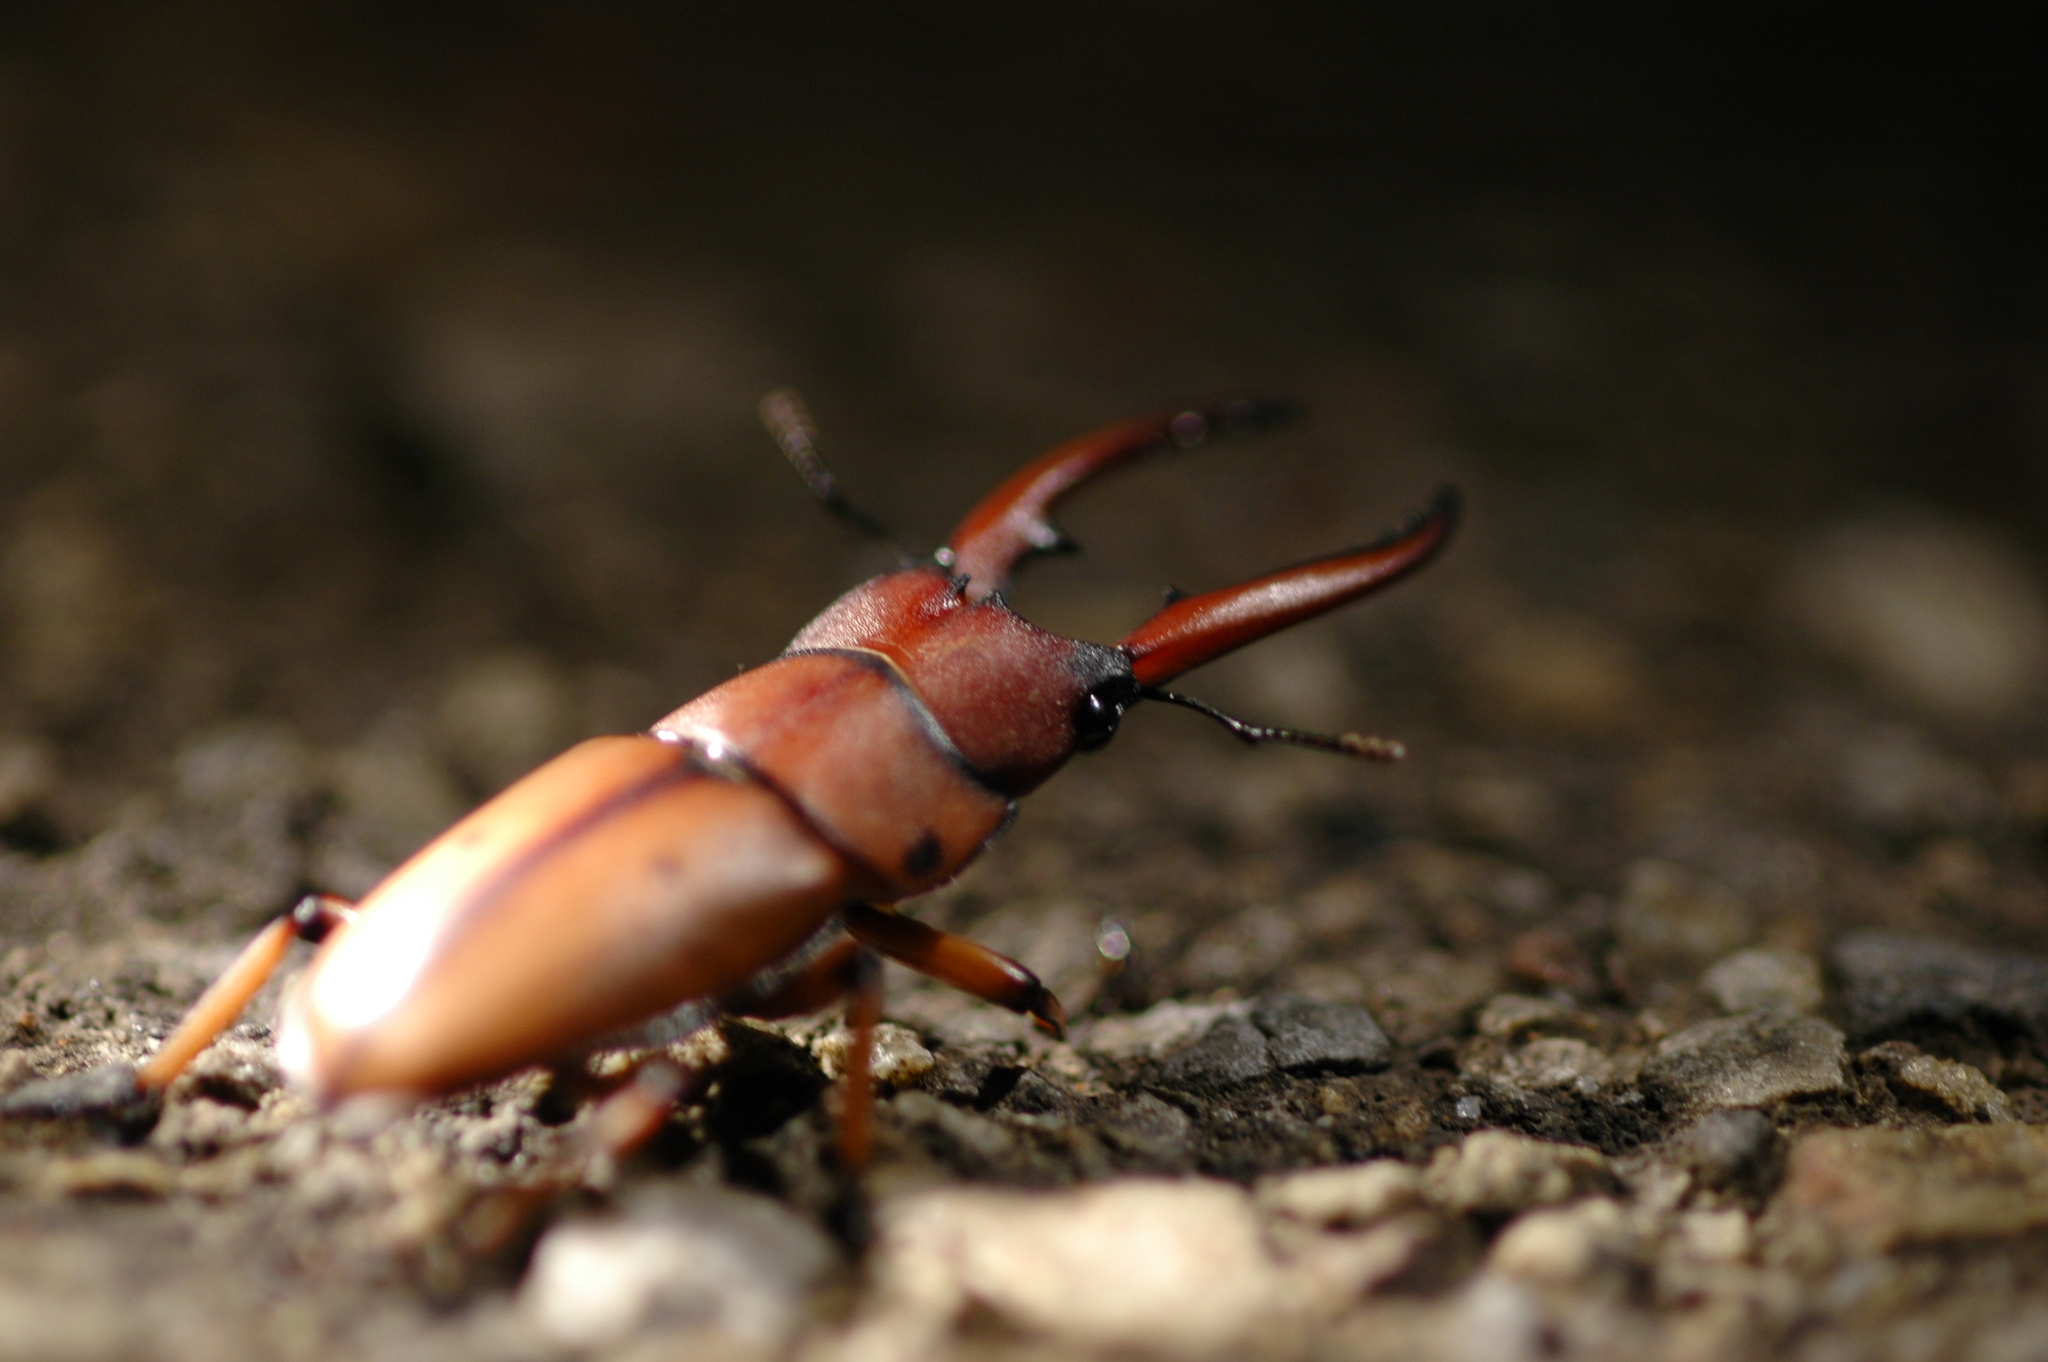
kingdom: Animalia
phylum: Arthropoda
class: Insecta
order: Coleoptera
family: Lucanidae
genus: Prosopocoilus
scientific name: Prosopocoilus astacoides
